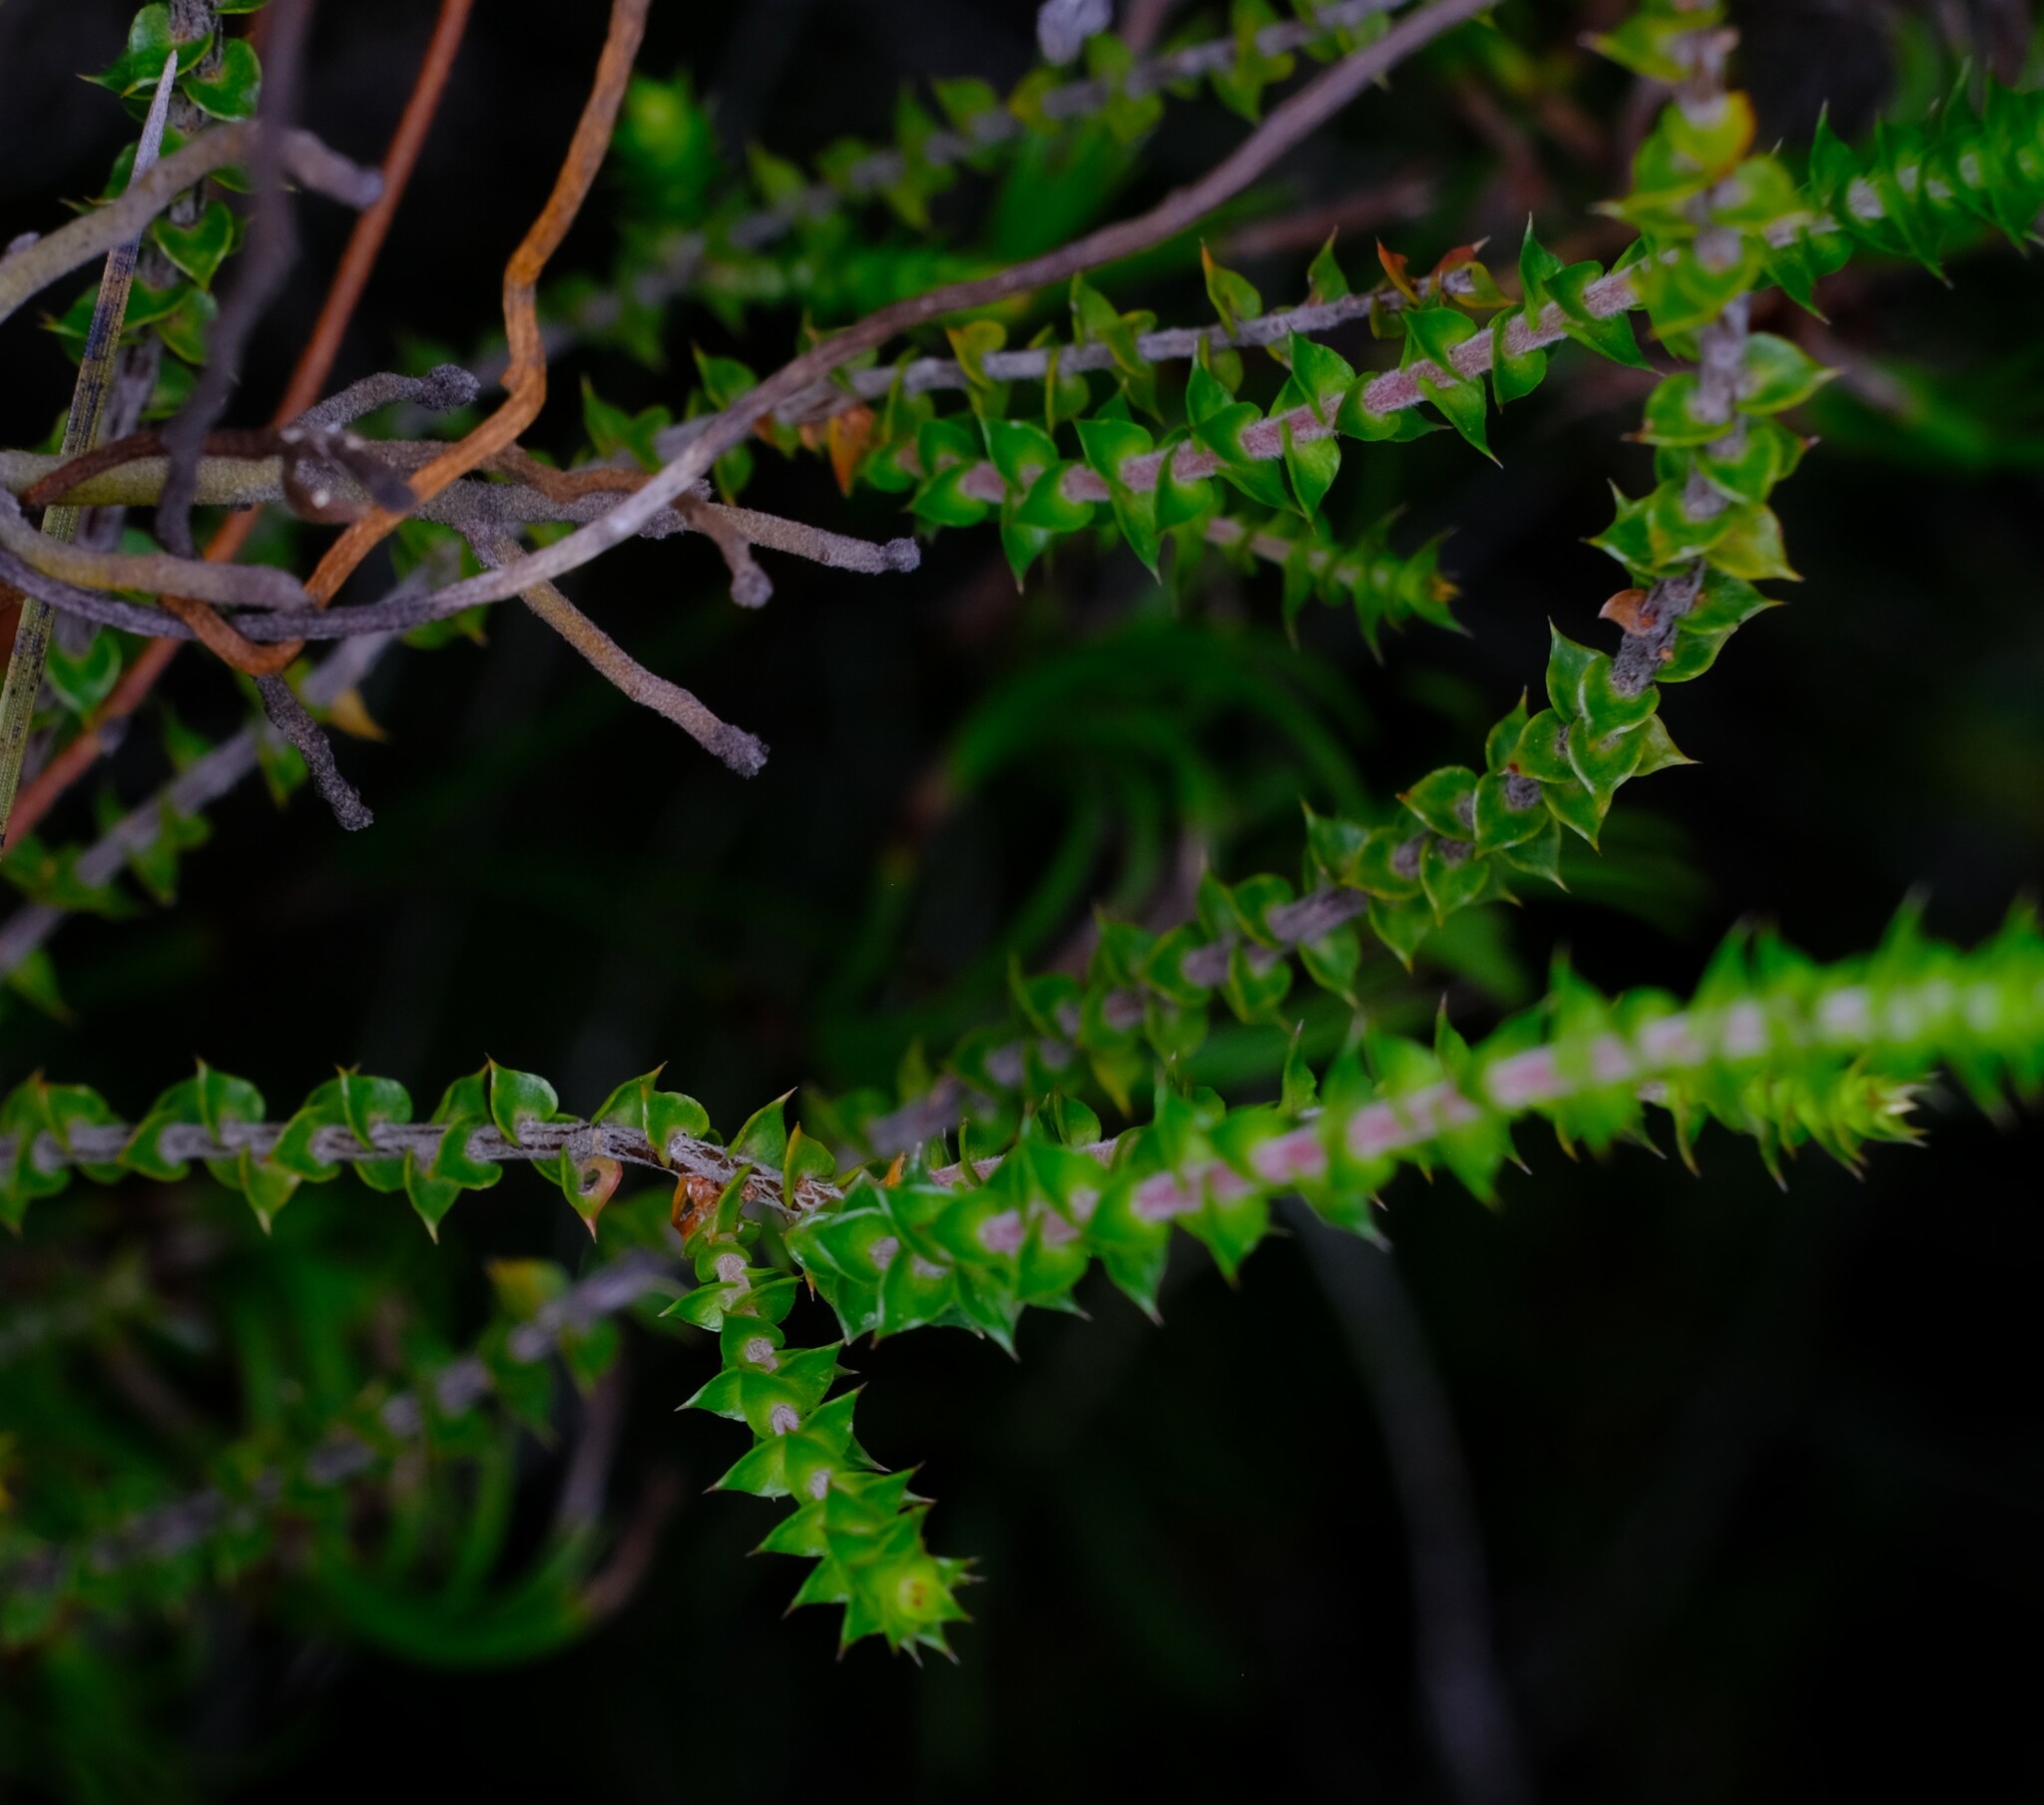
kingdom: Plantae
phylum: Tracheophyta
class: Magnoliopsida
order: Ericales
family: Ericaceae
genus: Epacris
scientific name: Epacris pulchella
